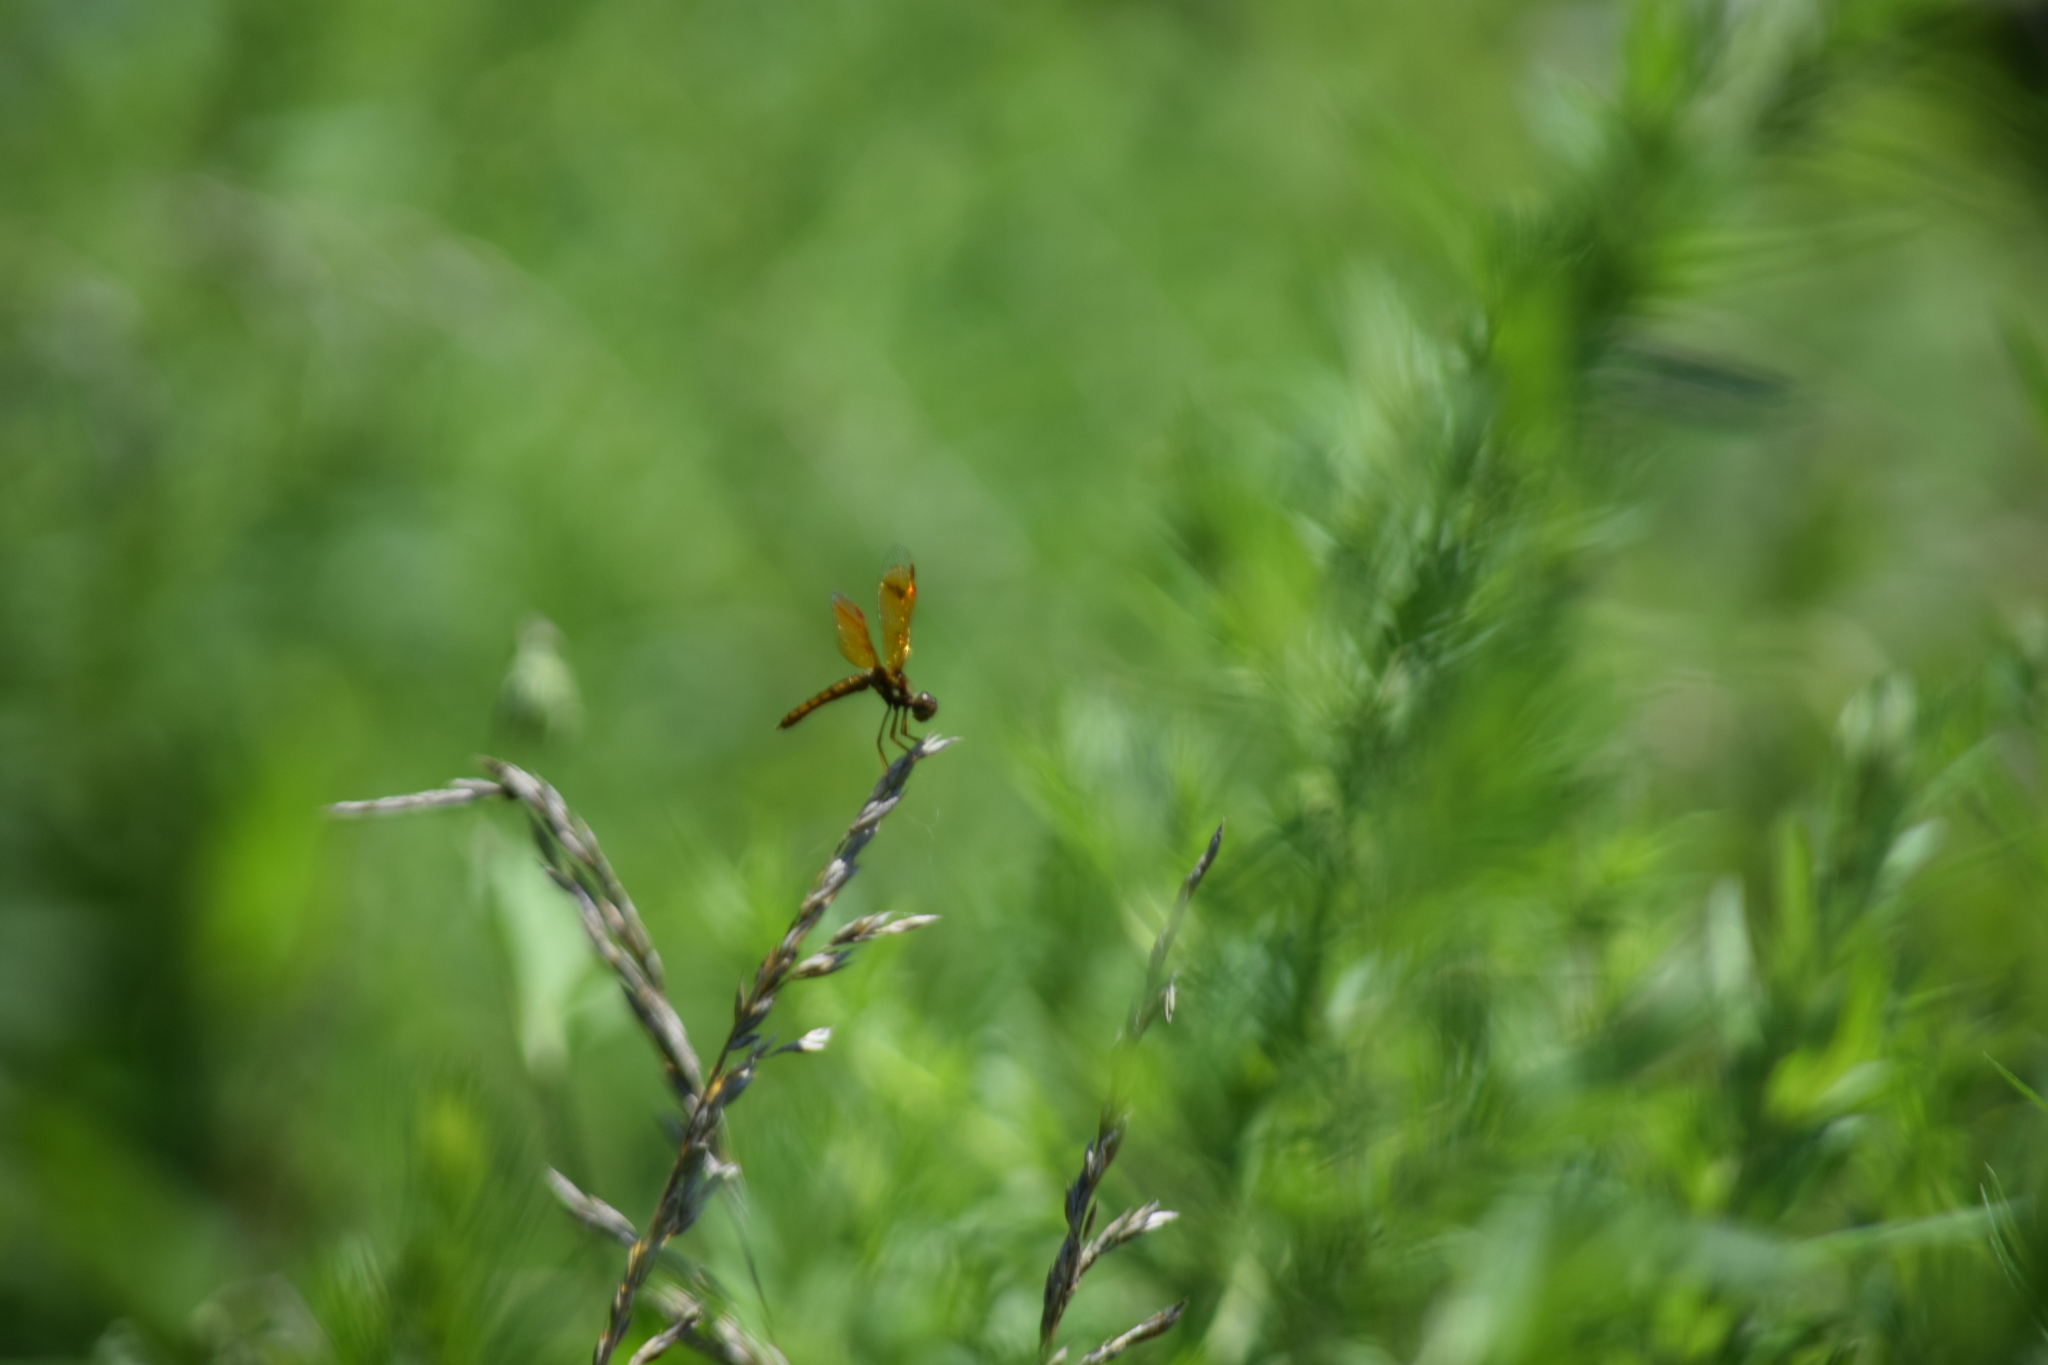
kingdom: Animalia
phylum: Arthropoda
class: Insecta
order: Odonata
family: Libellulidae
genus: Perithemis
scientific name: Perithemis tenera
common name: Eastern amberwing
